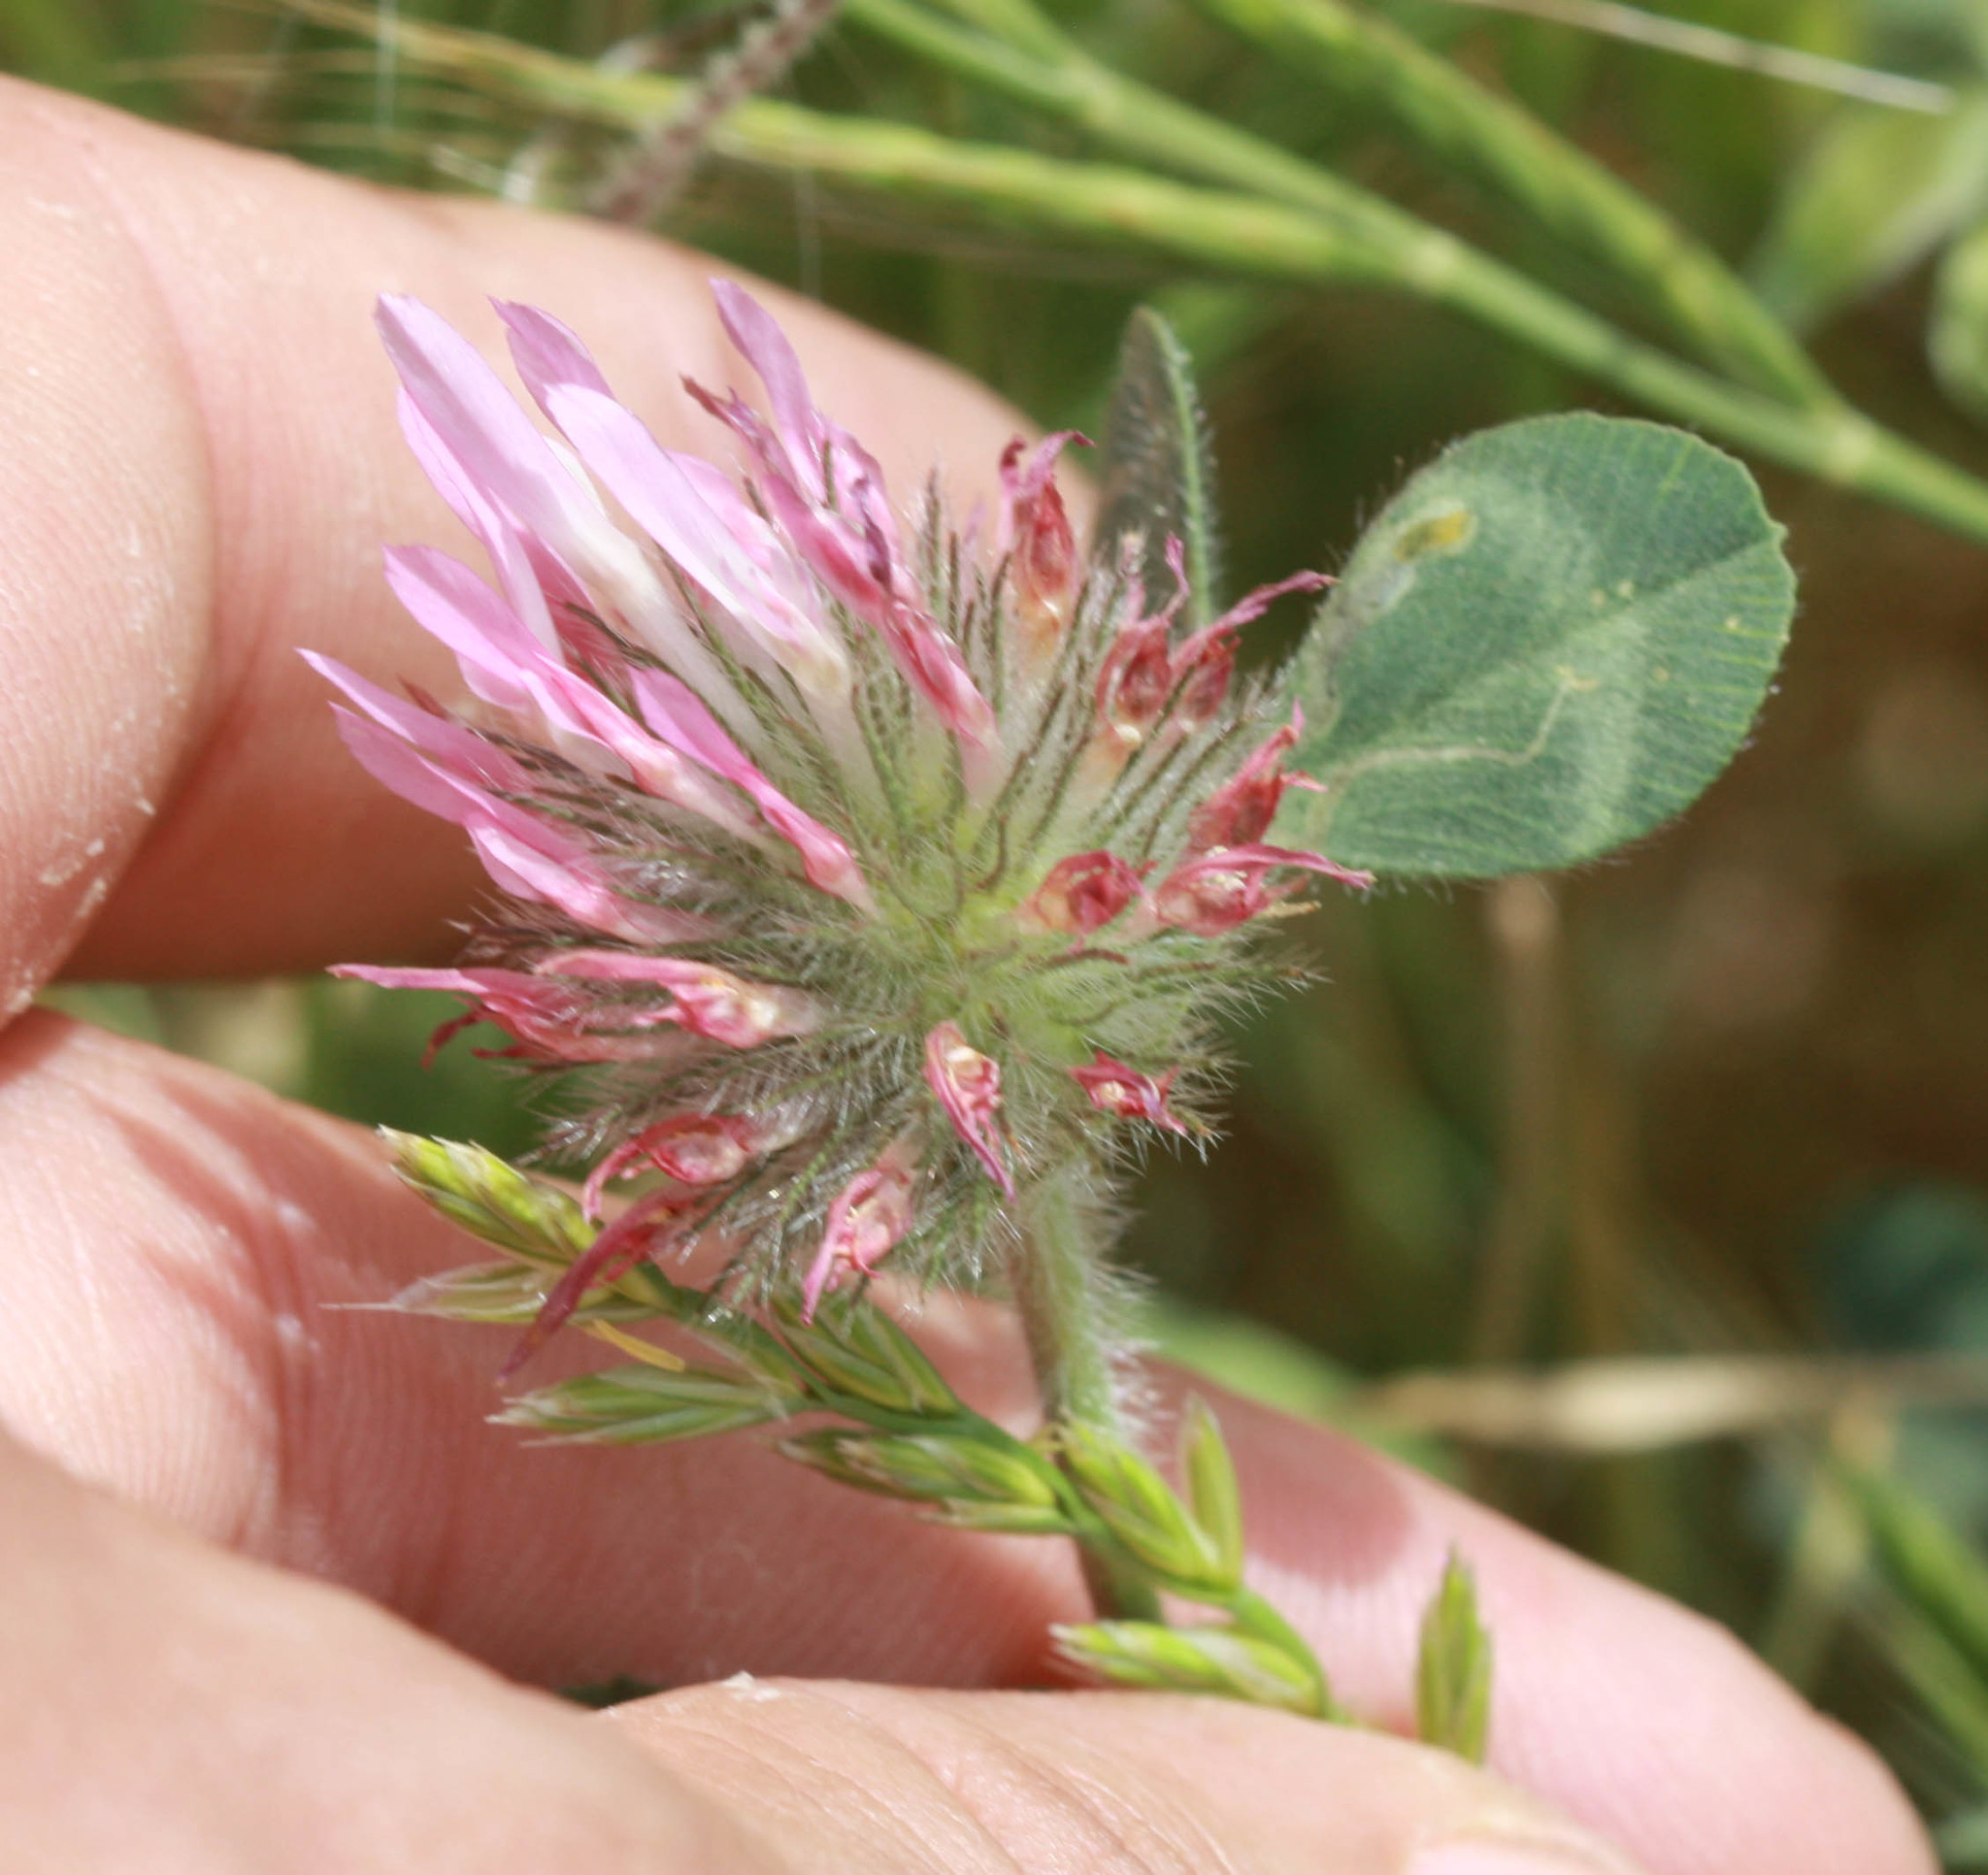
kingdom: Plantae
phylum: Tracheophyta
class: Magnoliopsida
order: Fabales
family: Fabaceae
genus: Trifolium
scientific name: Trifolium hirtum
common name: Rose clover
